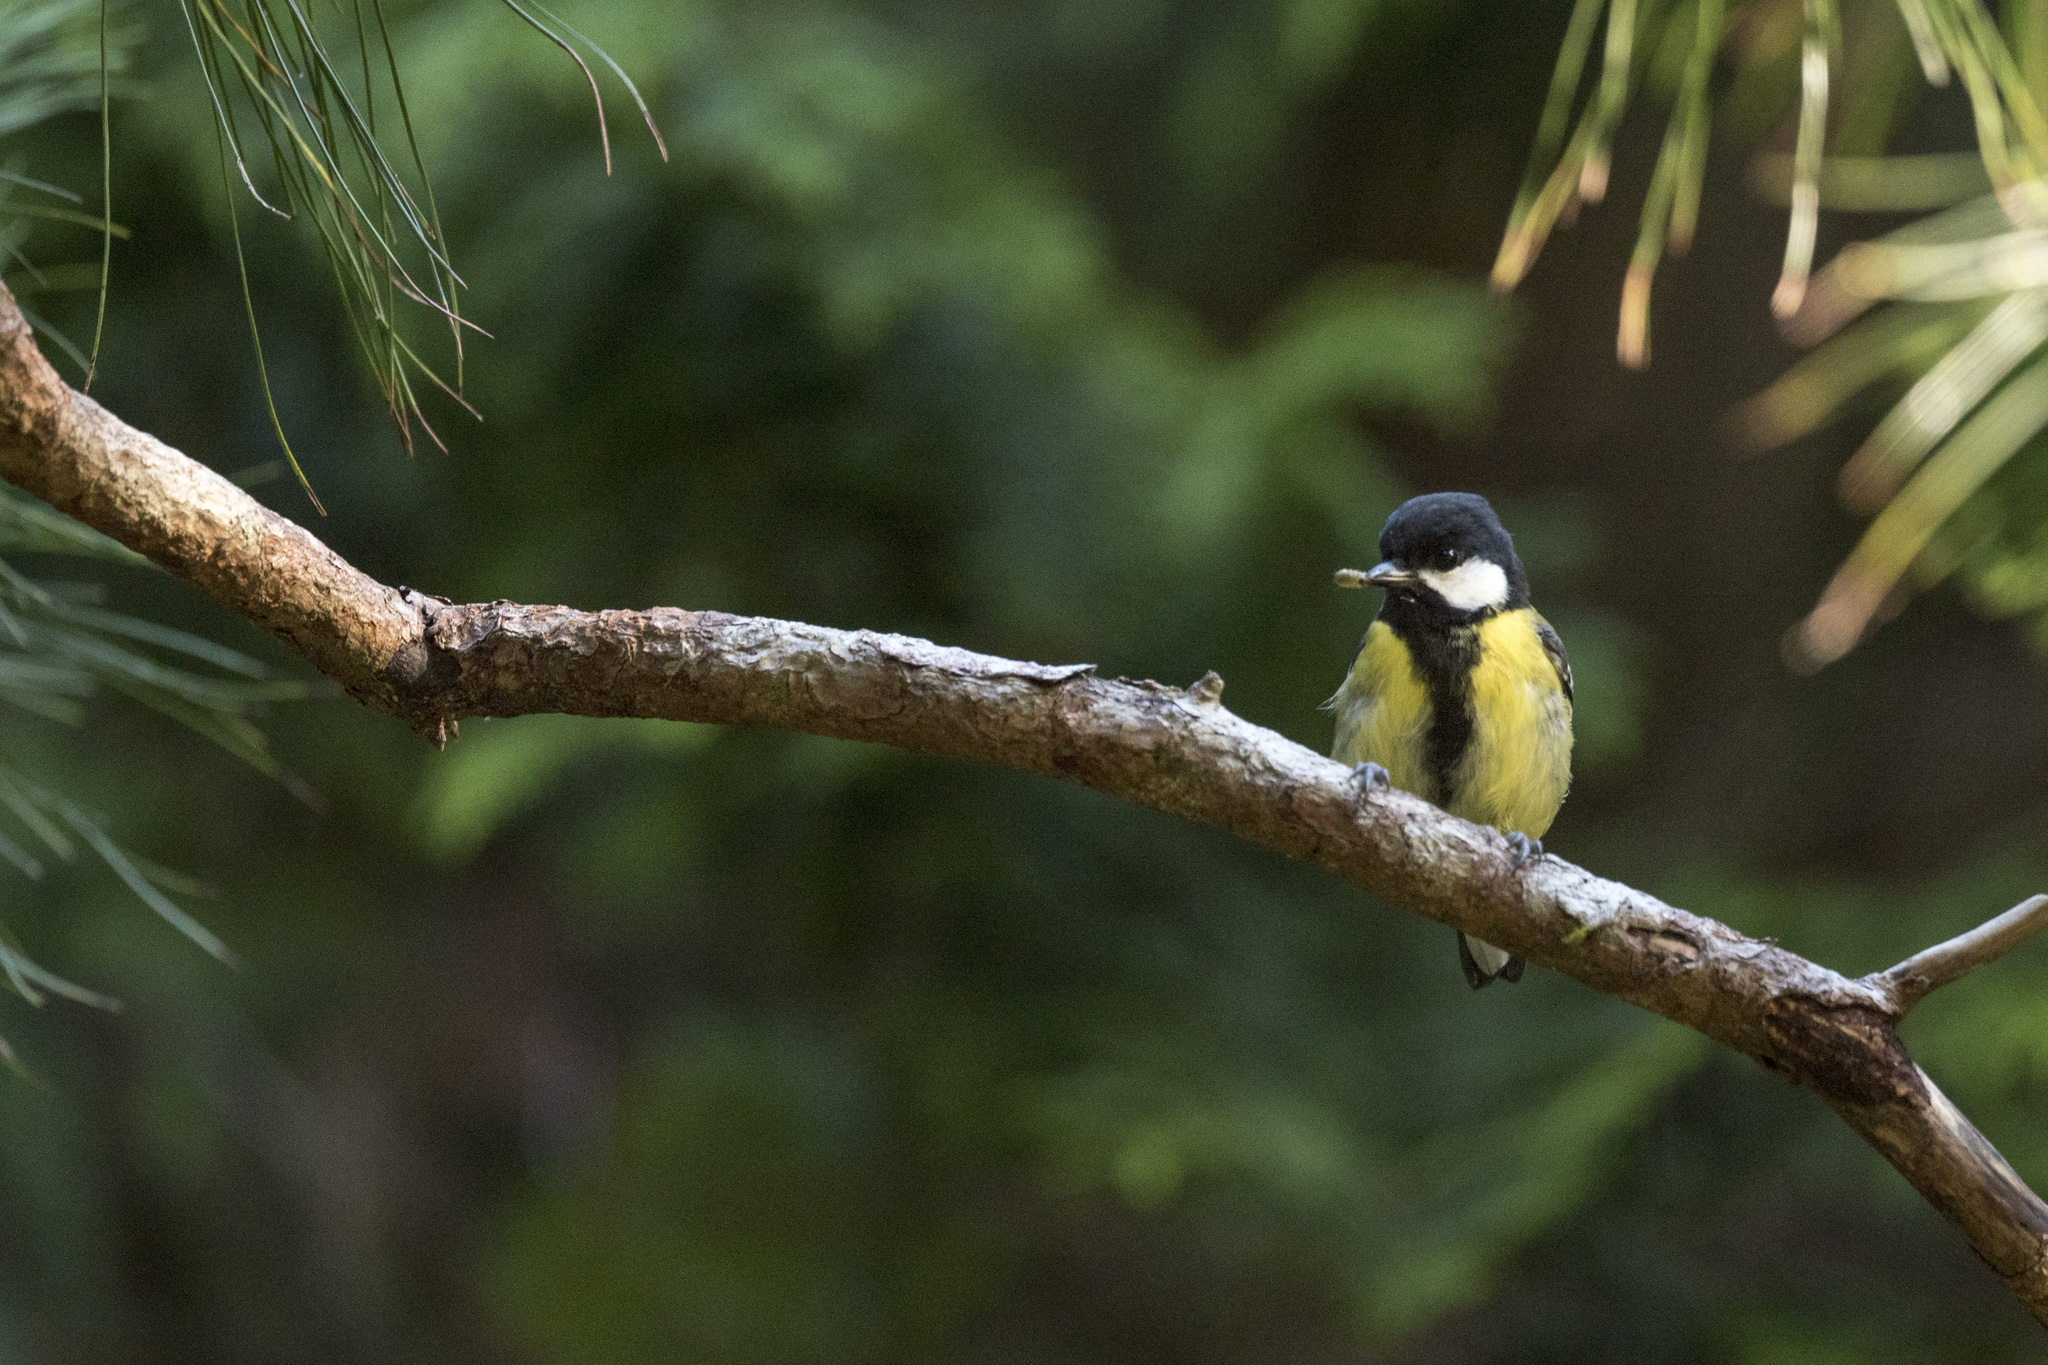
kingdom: Animalia
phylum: Chordata
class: Aves
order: Passeriformes
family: Paridae
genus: Parus
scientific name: Parus monticolus
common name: Green-backed tit
